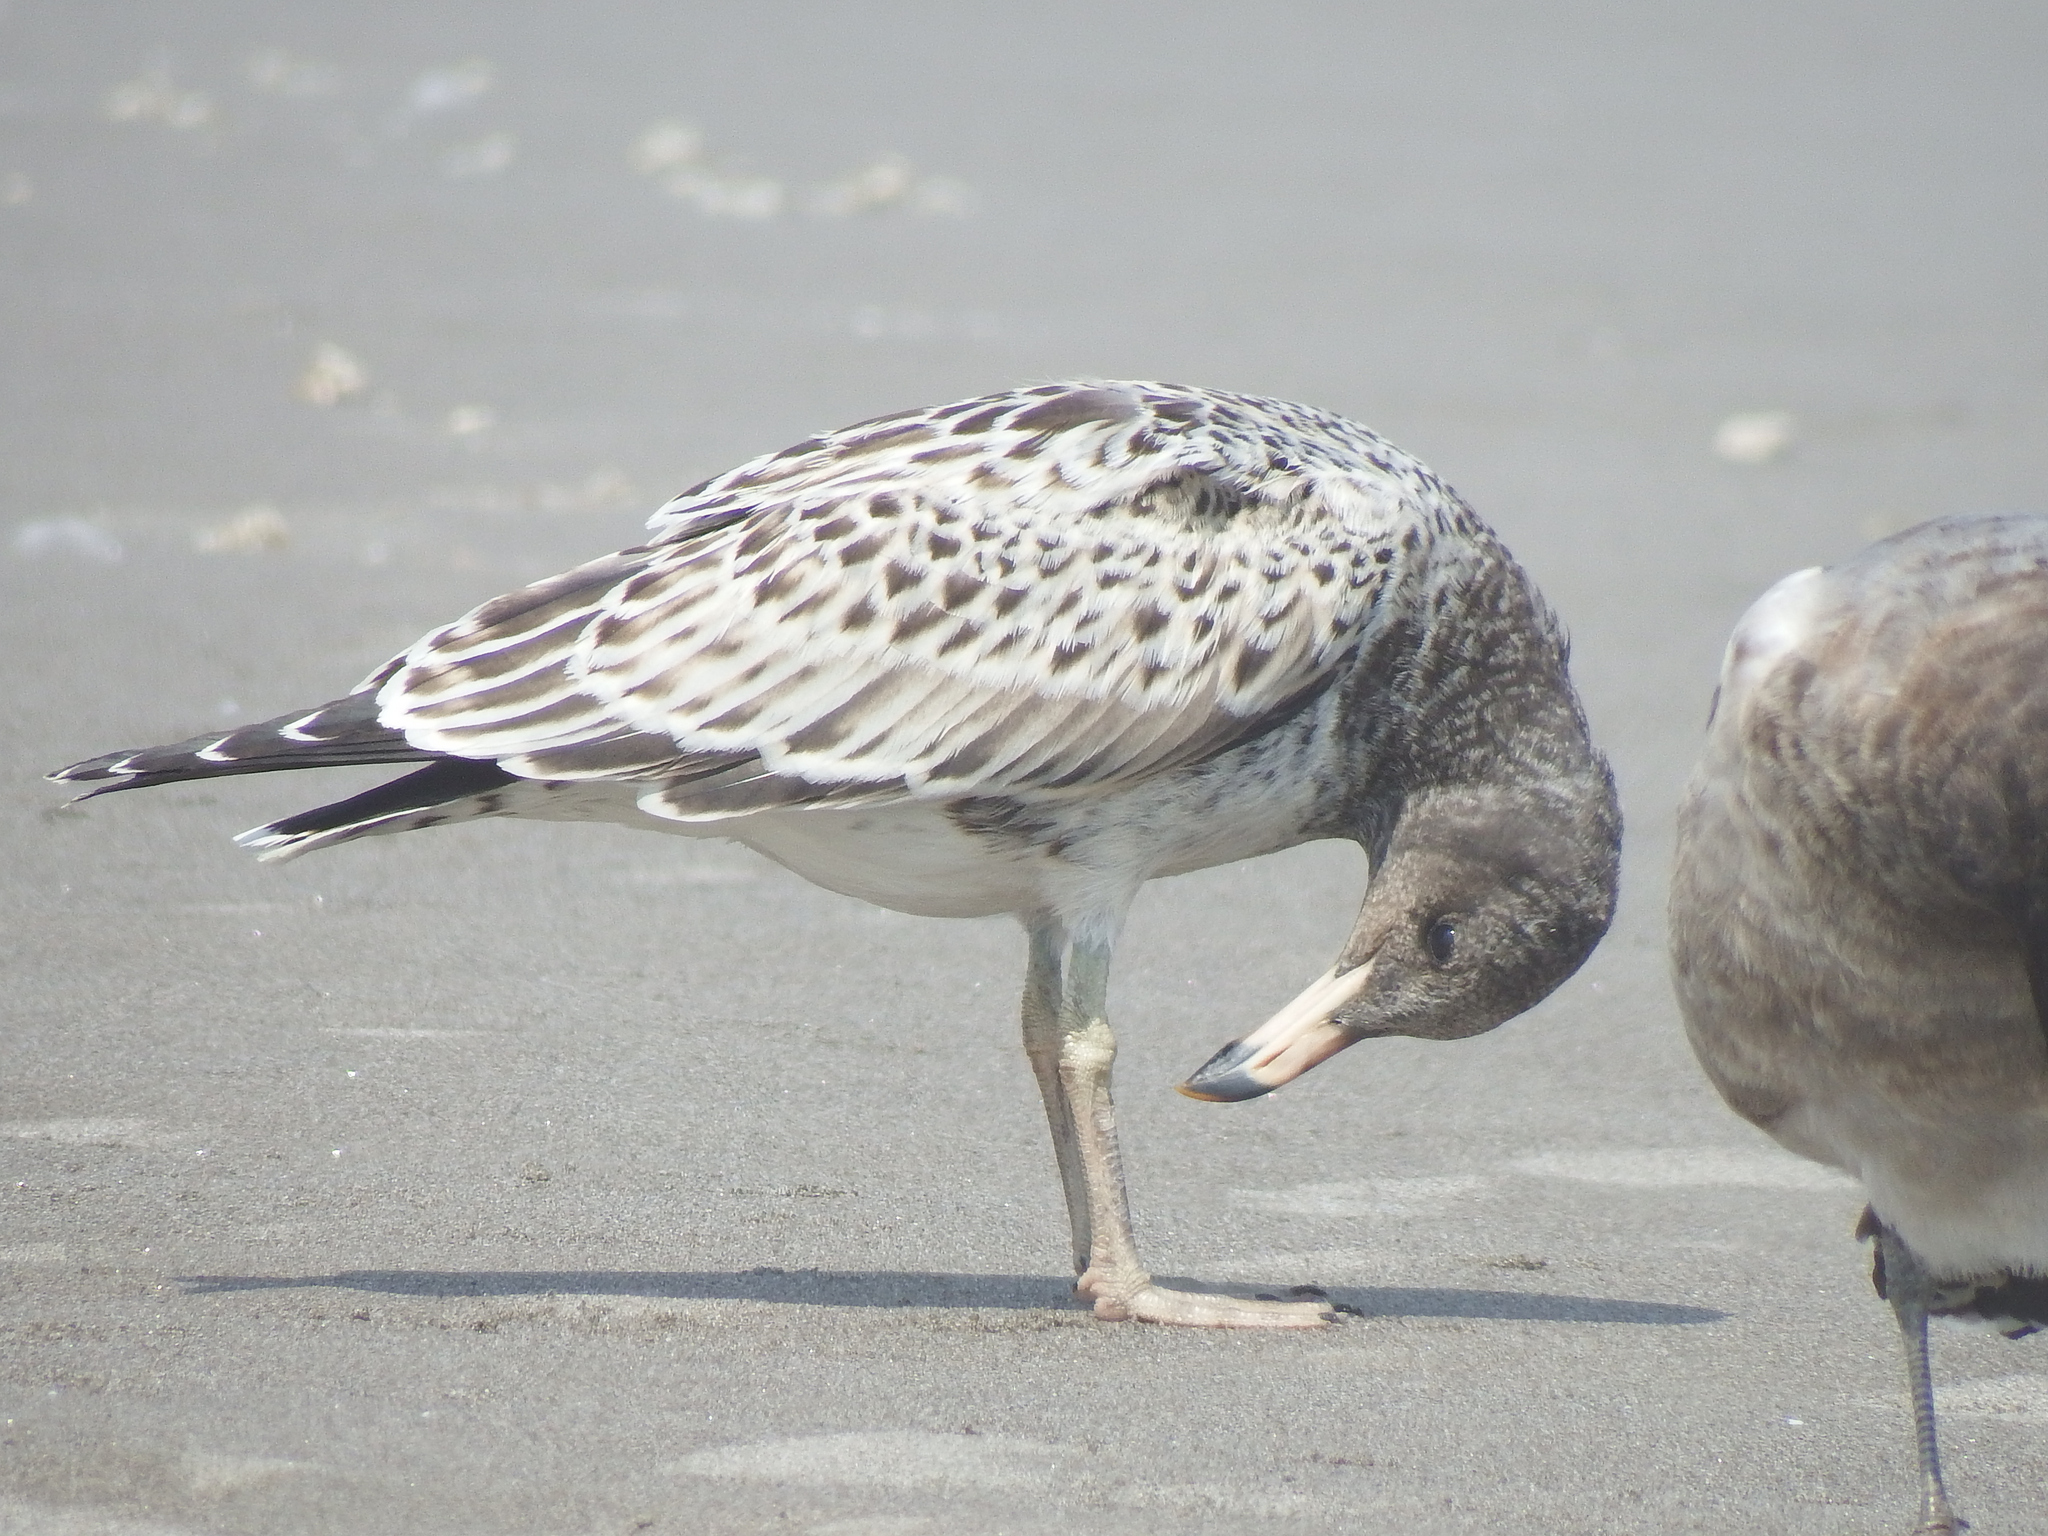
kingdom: Animalia
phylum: Chordata
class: Aves
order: Charadriiformes
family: Laridae
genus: Larus
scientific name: Larus belcheri
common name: Belcher's gull
